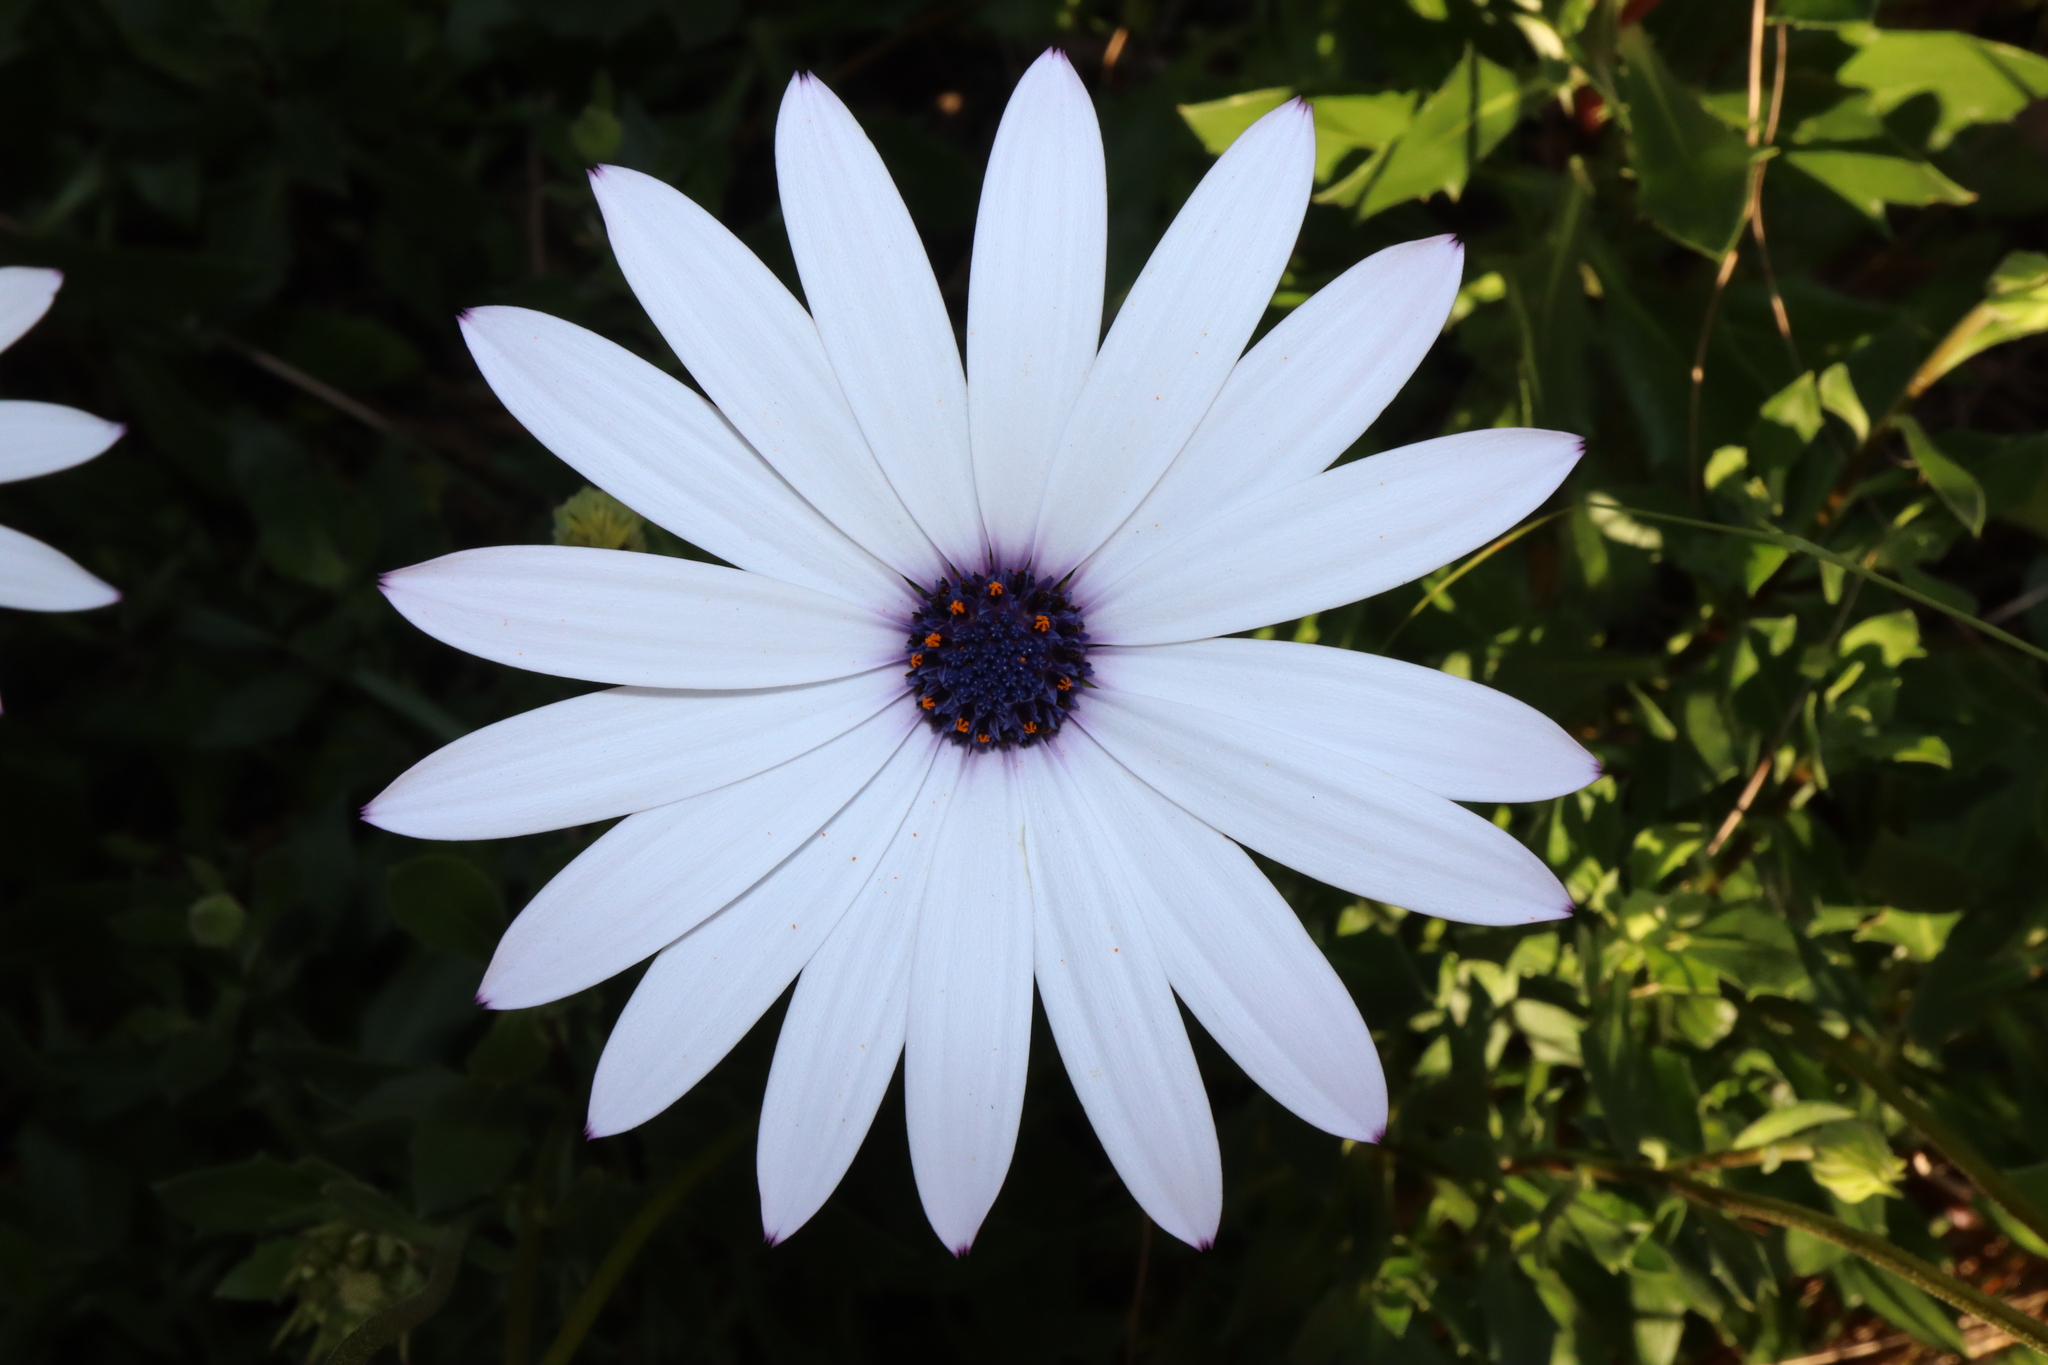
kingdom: Plantae
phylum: Tracheophyta
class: Magnoliopsida
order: Asterales
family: Asteraceae
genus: Dimorphotheca
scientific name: Dimorphotheca ecklonis
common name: Vanstaden's river daisy
